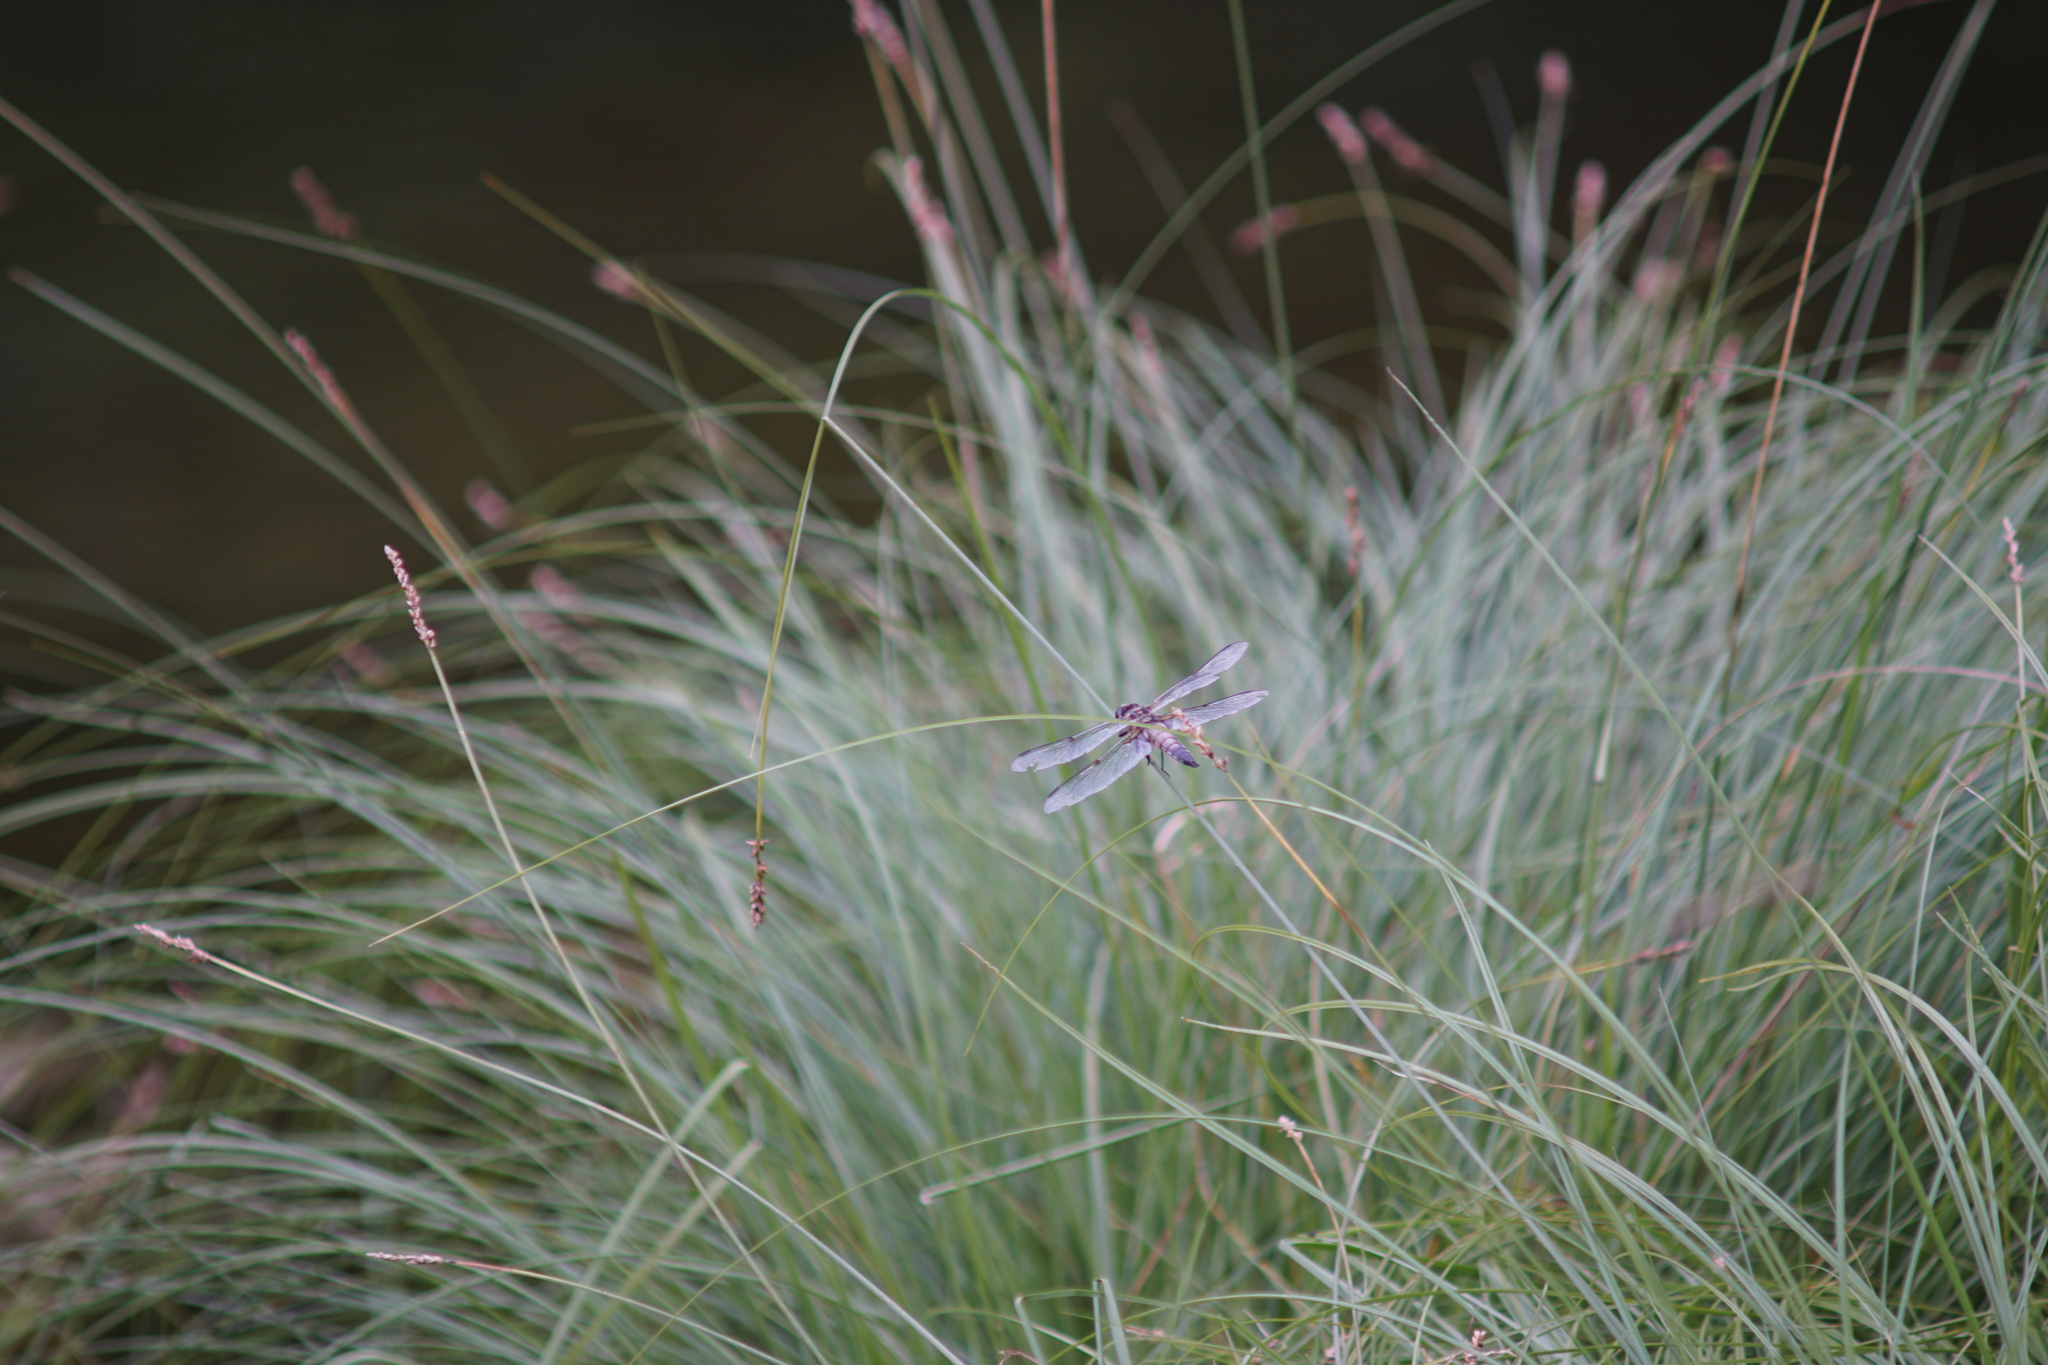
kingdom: Animalia
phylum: Arthropoda
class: Insecta
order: Odonata
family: Libellulidae
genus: Libellula
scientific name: Libellula quadrimaculata
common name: Four-spotted chaser
